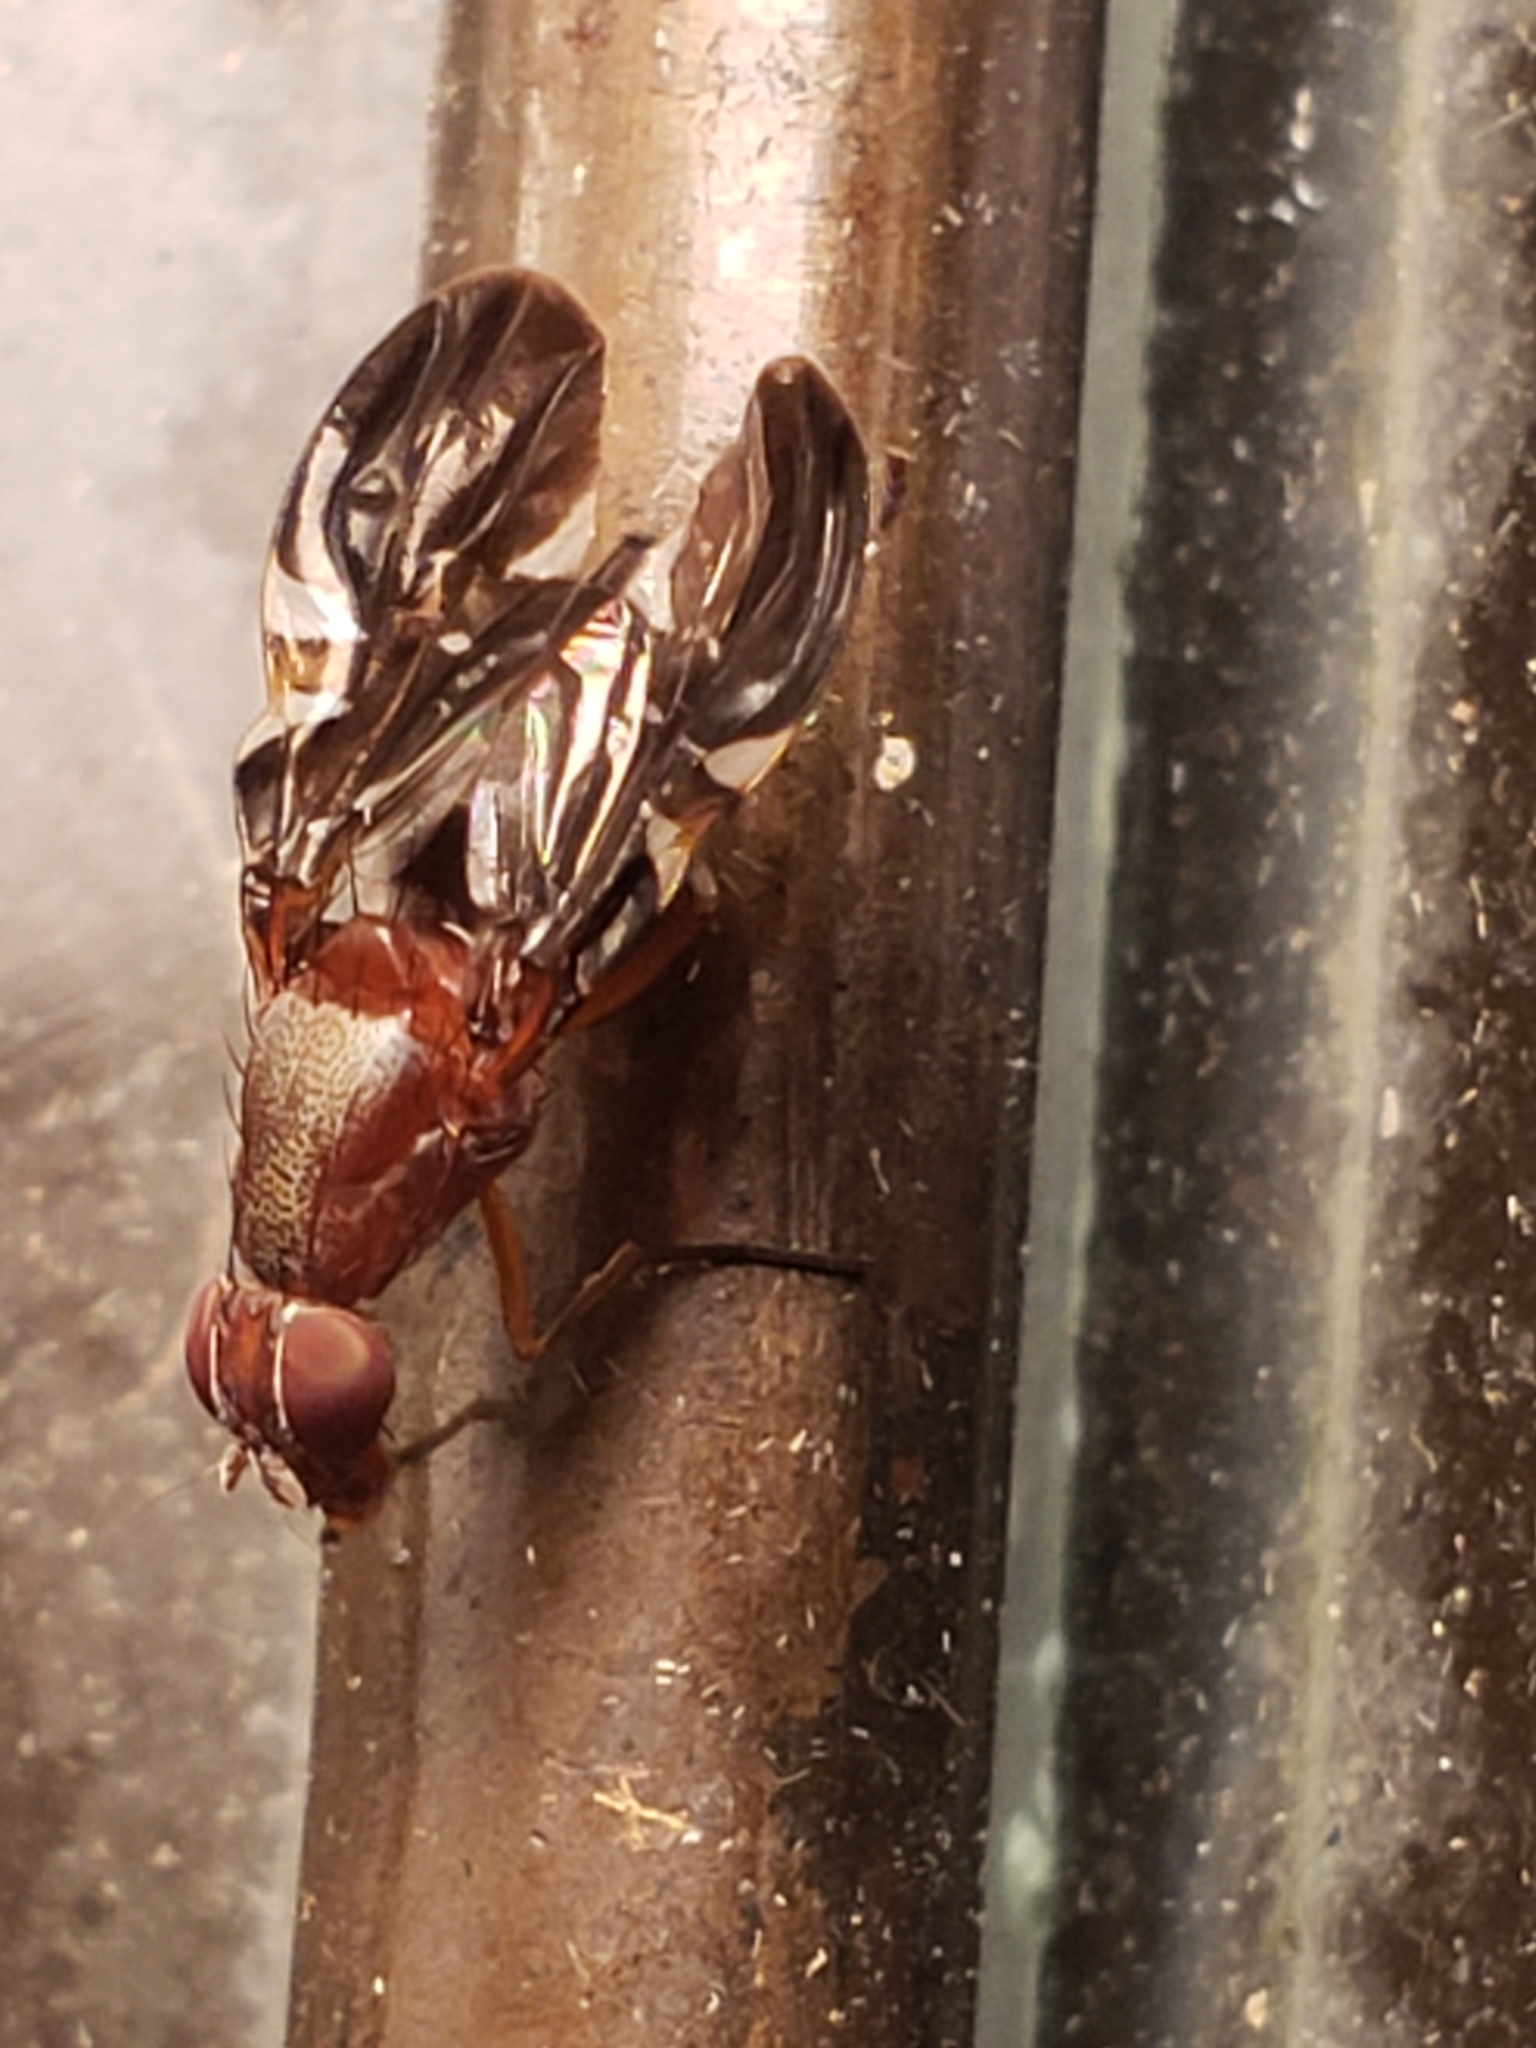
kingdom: Animalia
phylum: Arthropoda
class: Insecta
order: Diptera
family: Ulidiidae
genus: Delphinia
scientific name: Delphinia picta
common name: Common picture-winged fly
